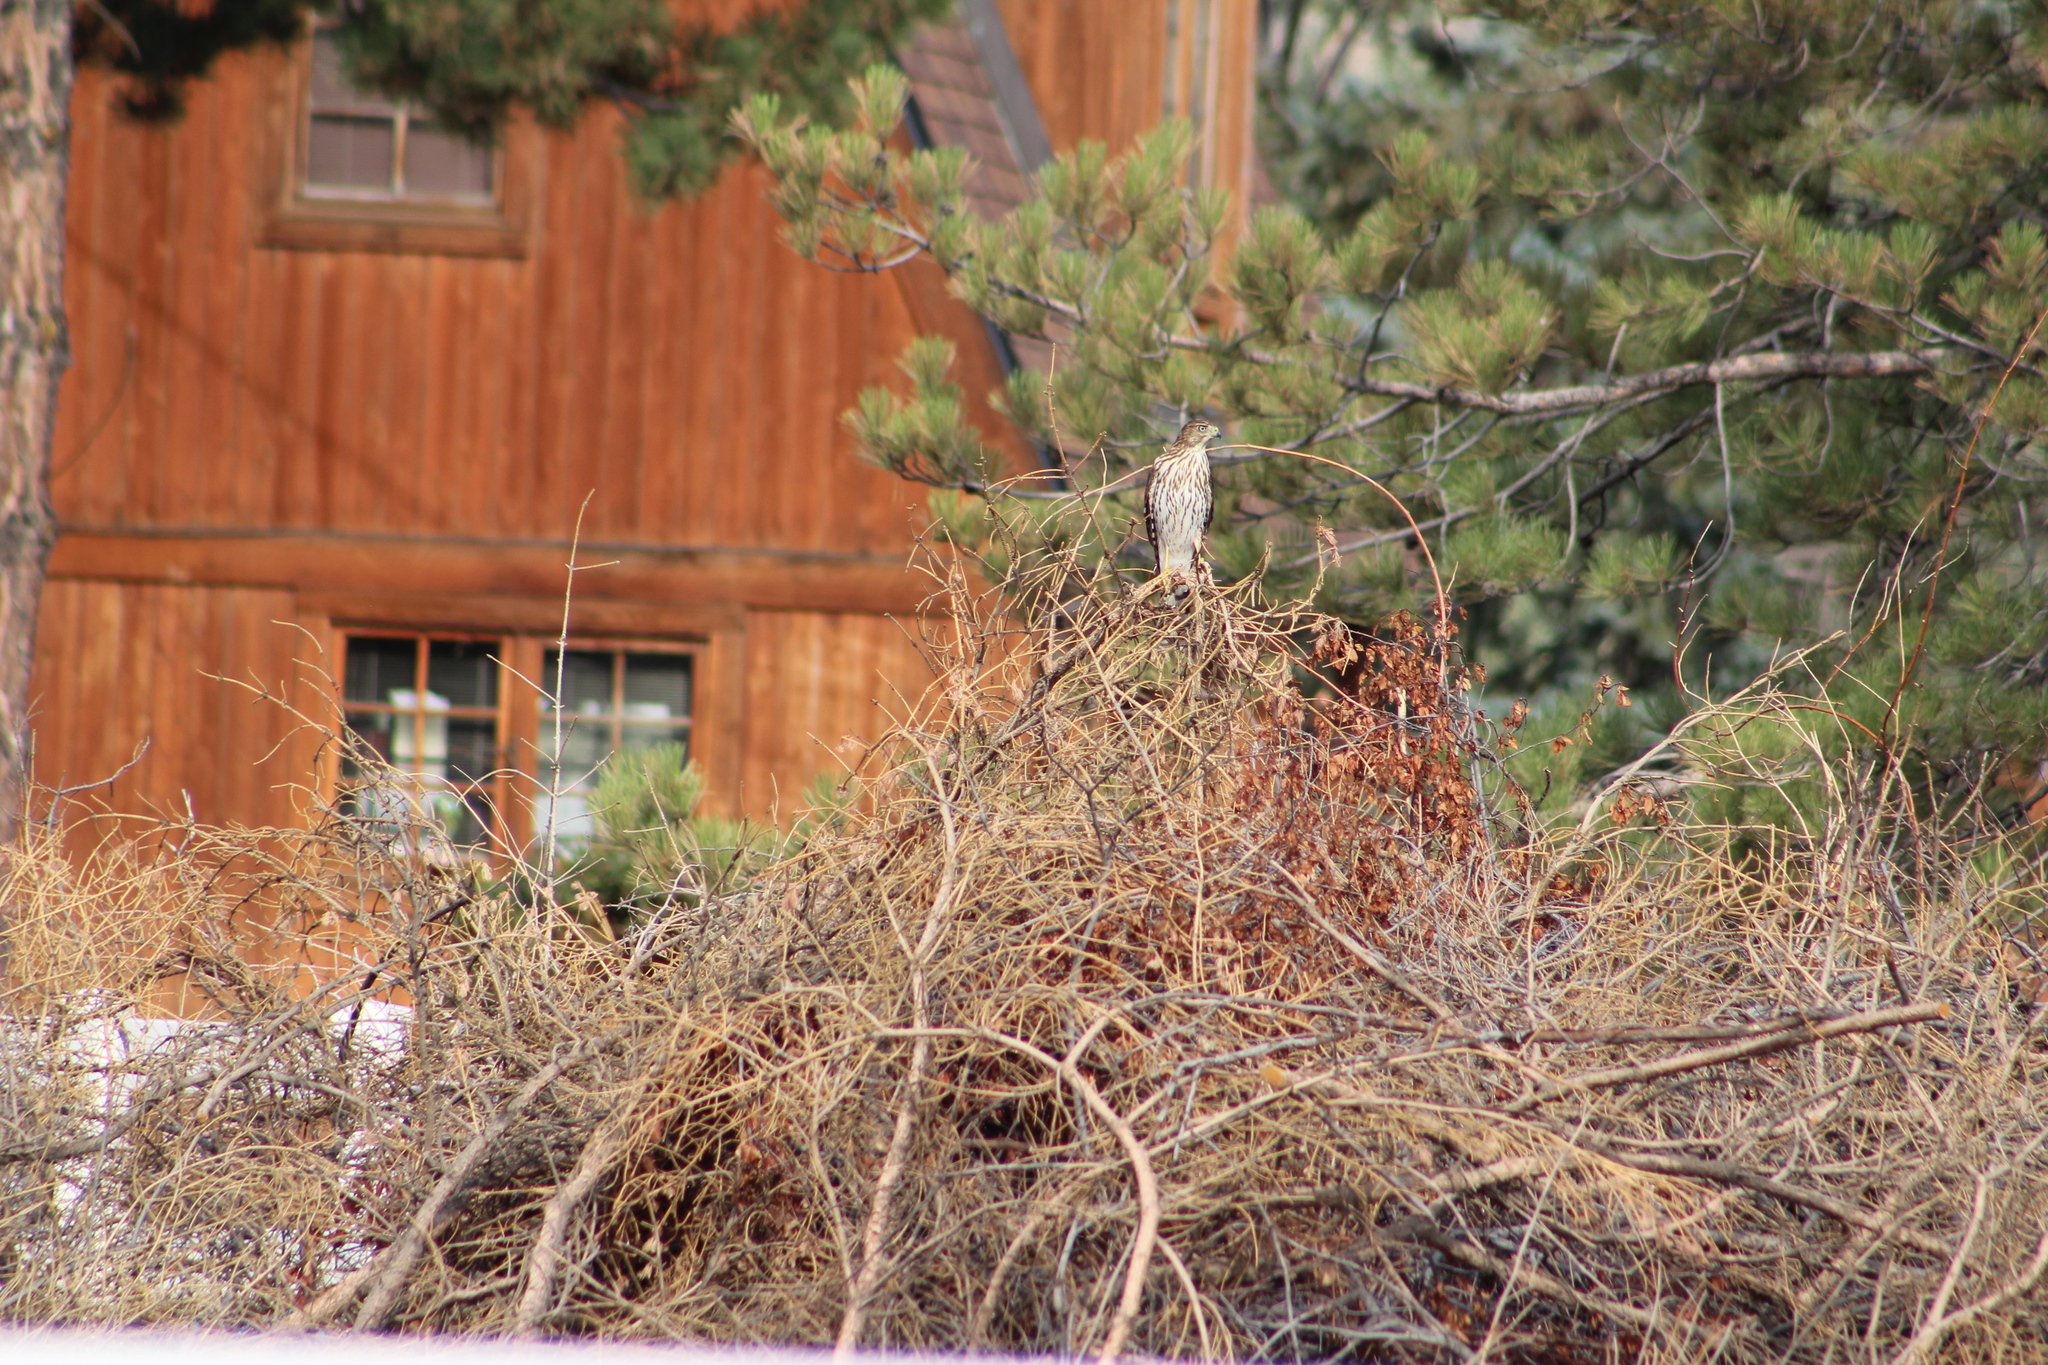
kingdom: Animalia
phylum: Chordata
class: Aves
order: Accipitriformes
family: Accipitridae
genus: Accipiter
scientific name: Accipiter cooperii
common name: Cooper's hawk
